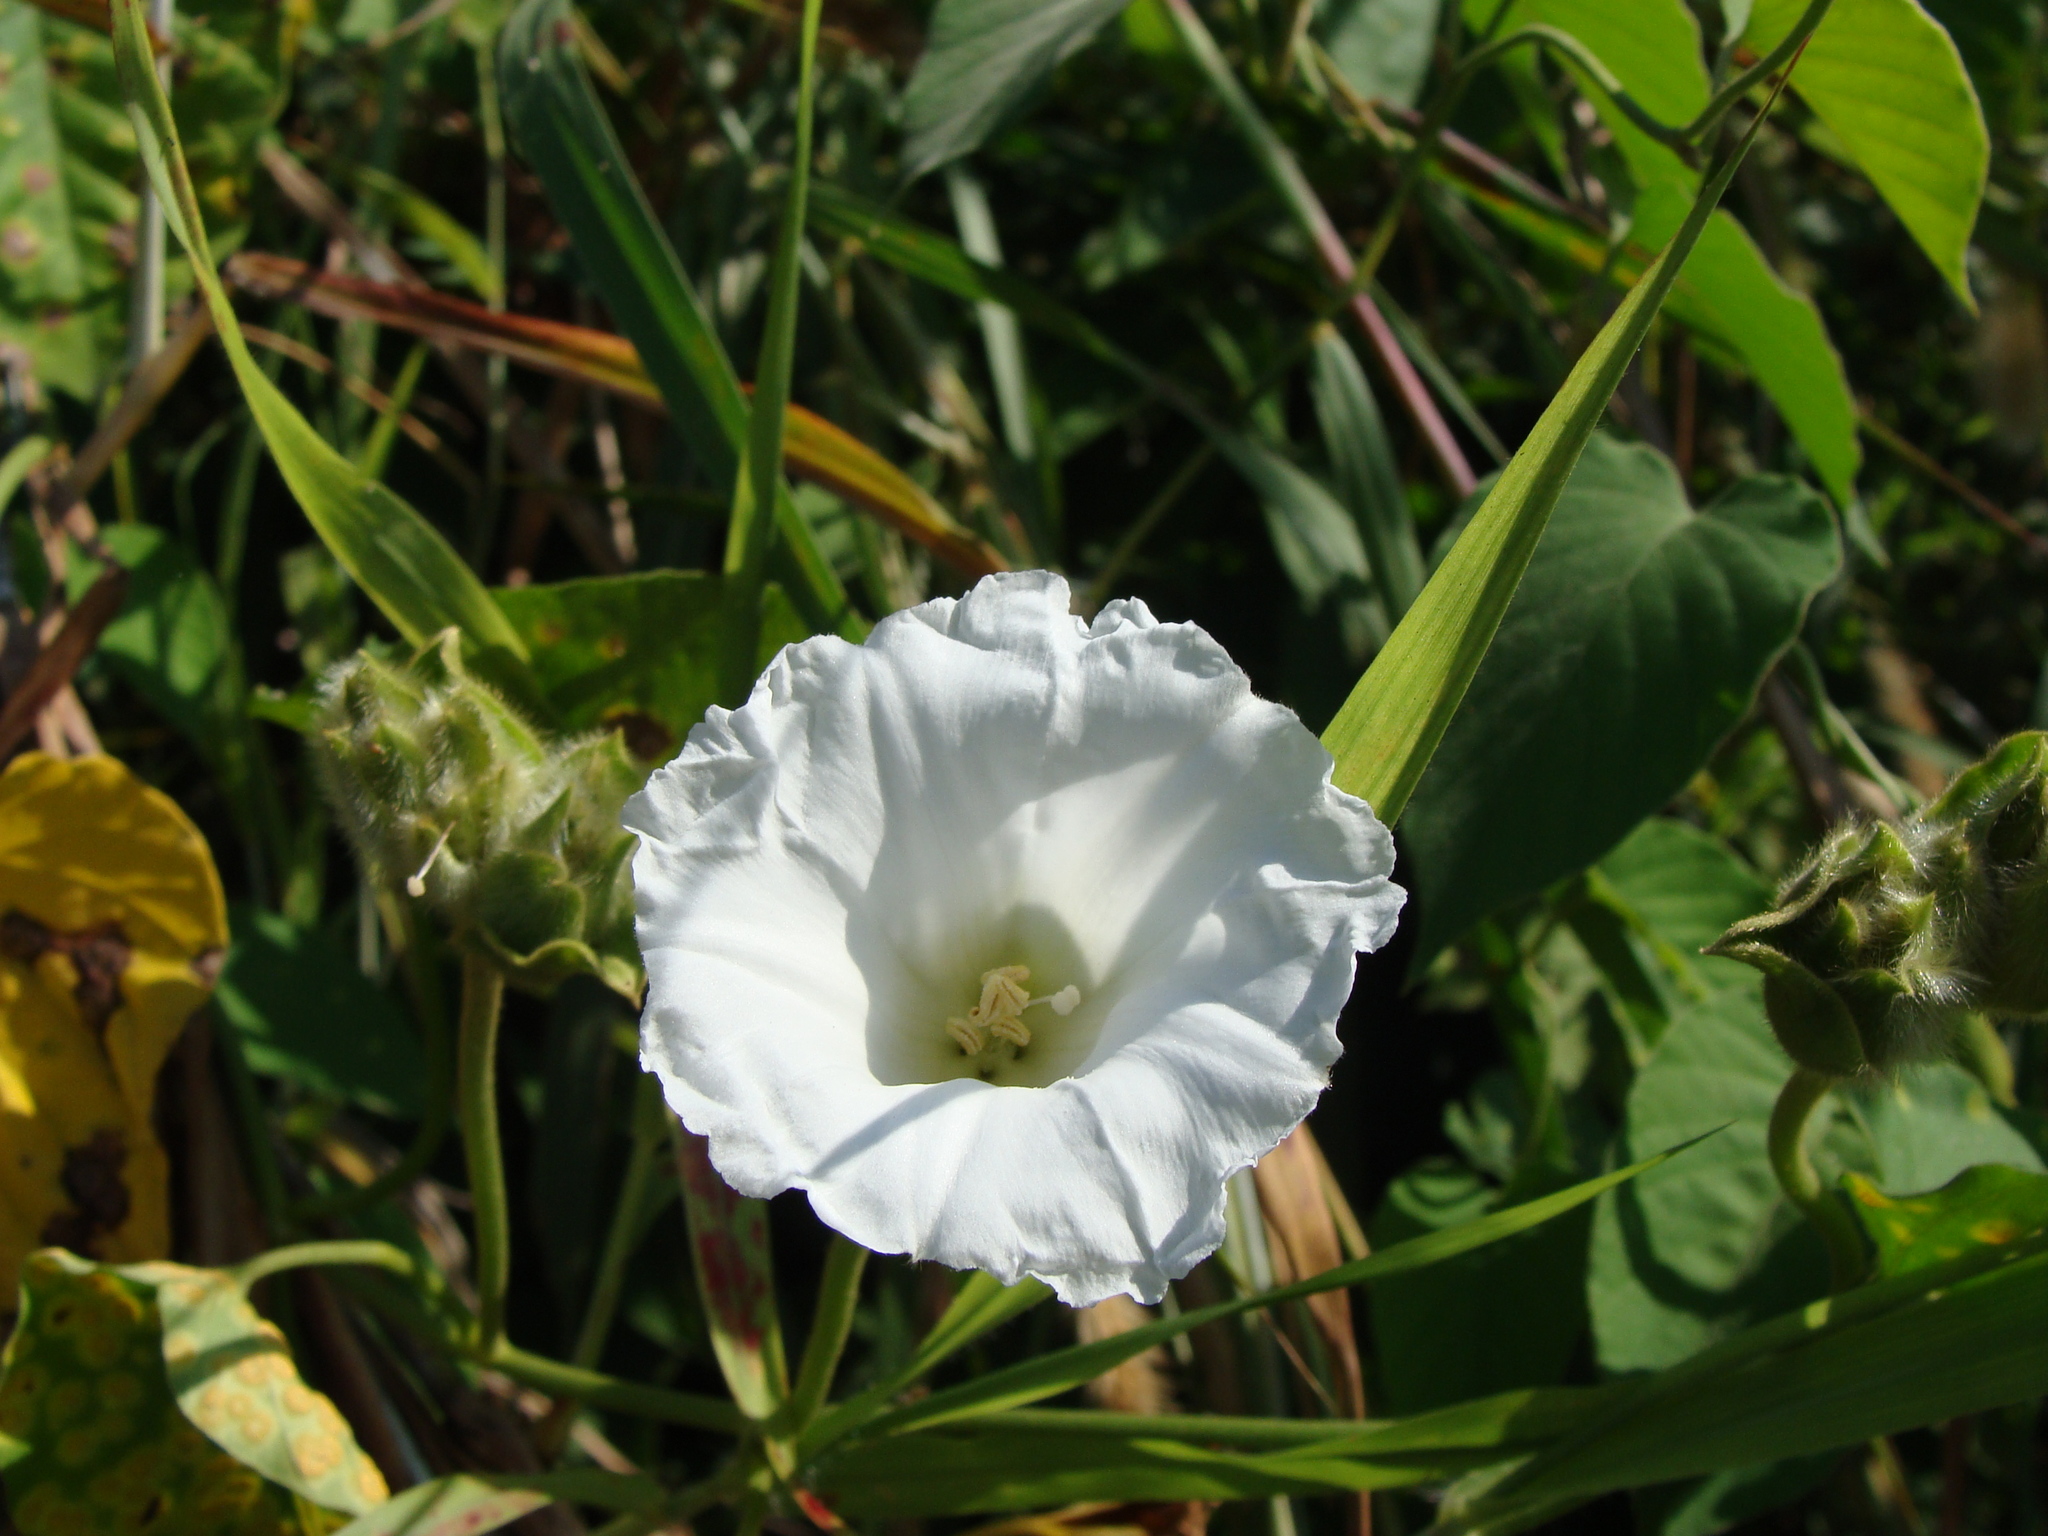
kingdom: Plantae
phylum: Tracheophyta
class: Magnoliopsida
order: Solanales
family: Convolvulaceae
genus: Odonellia
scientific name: Odonellia hirtiflora
